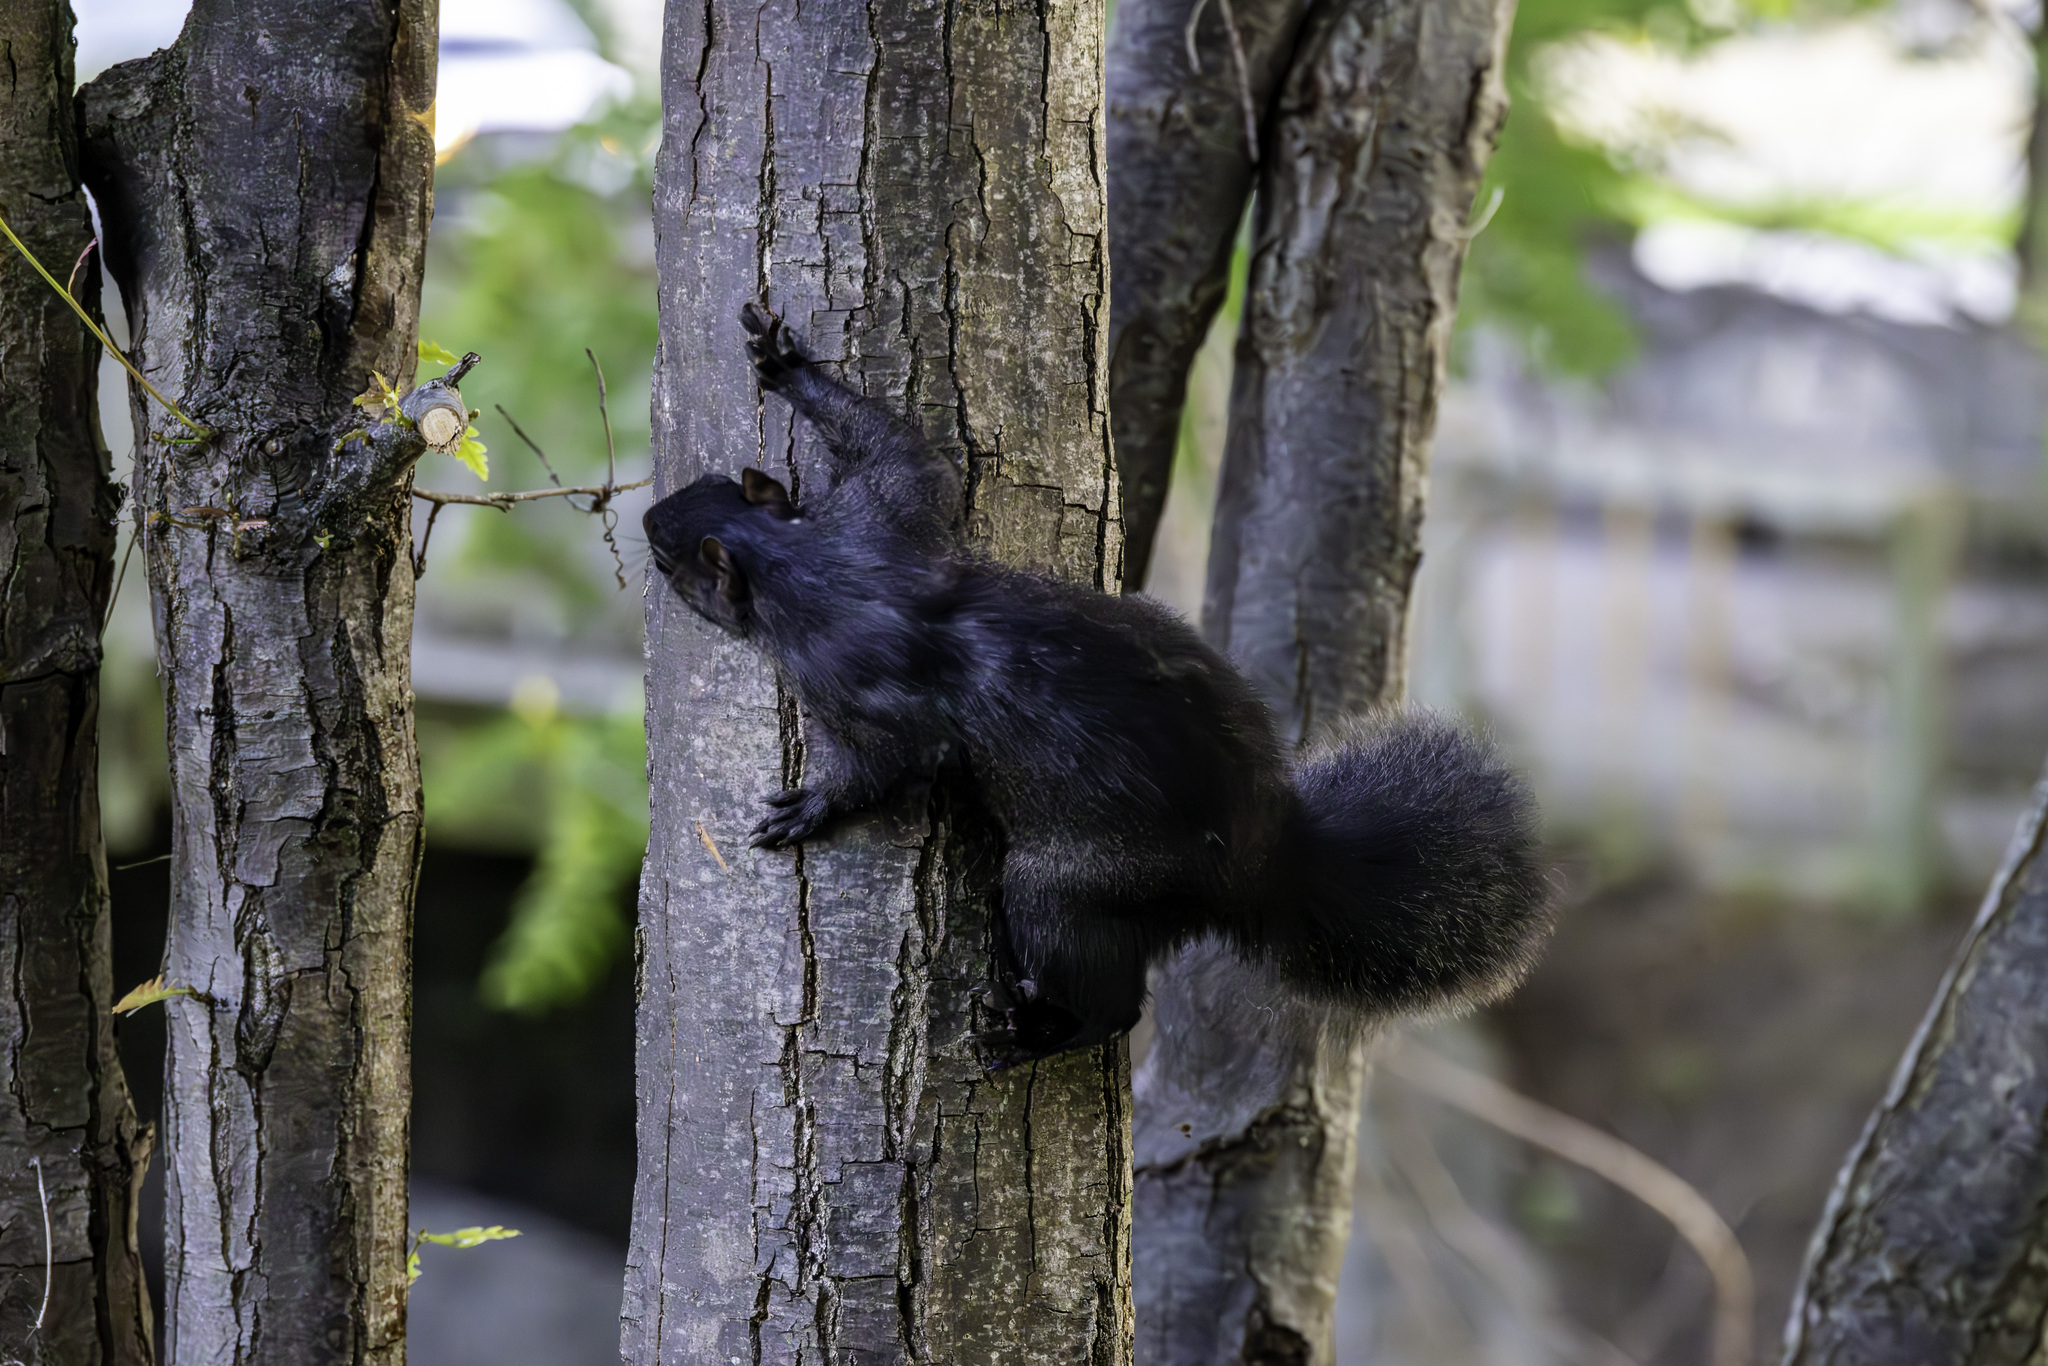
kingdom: Animalia
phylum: Chordata
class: Mammalia
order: Rodentia
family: Sciuridae
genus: Sciurus
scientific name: Sciurus carolinensis
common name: Eastern gray squirrel
